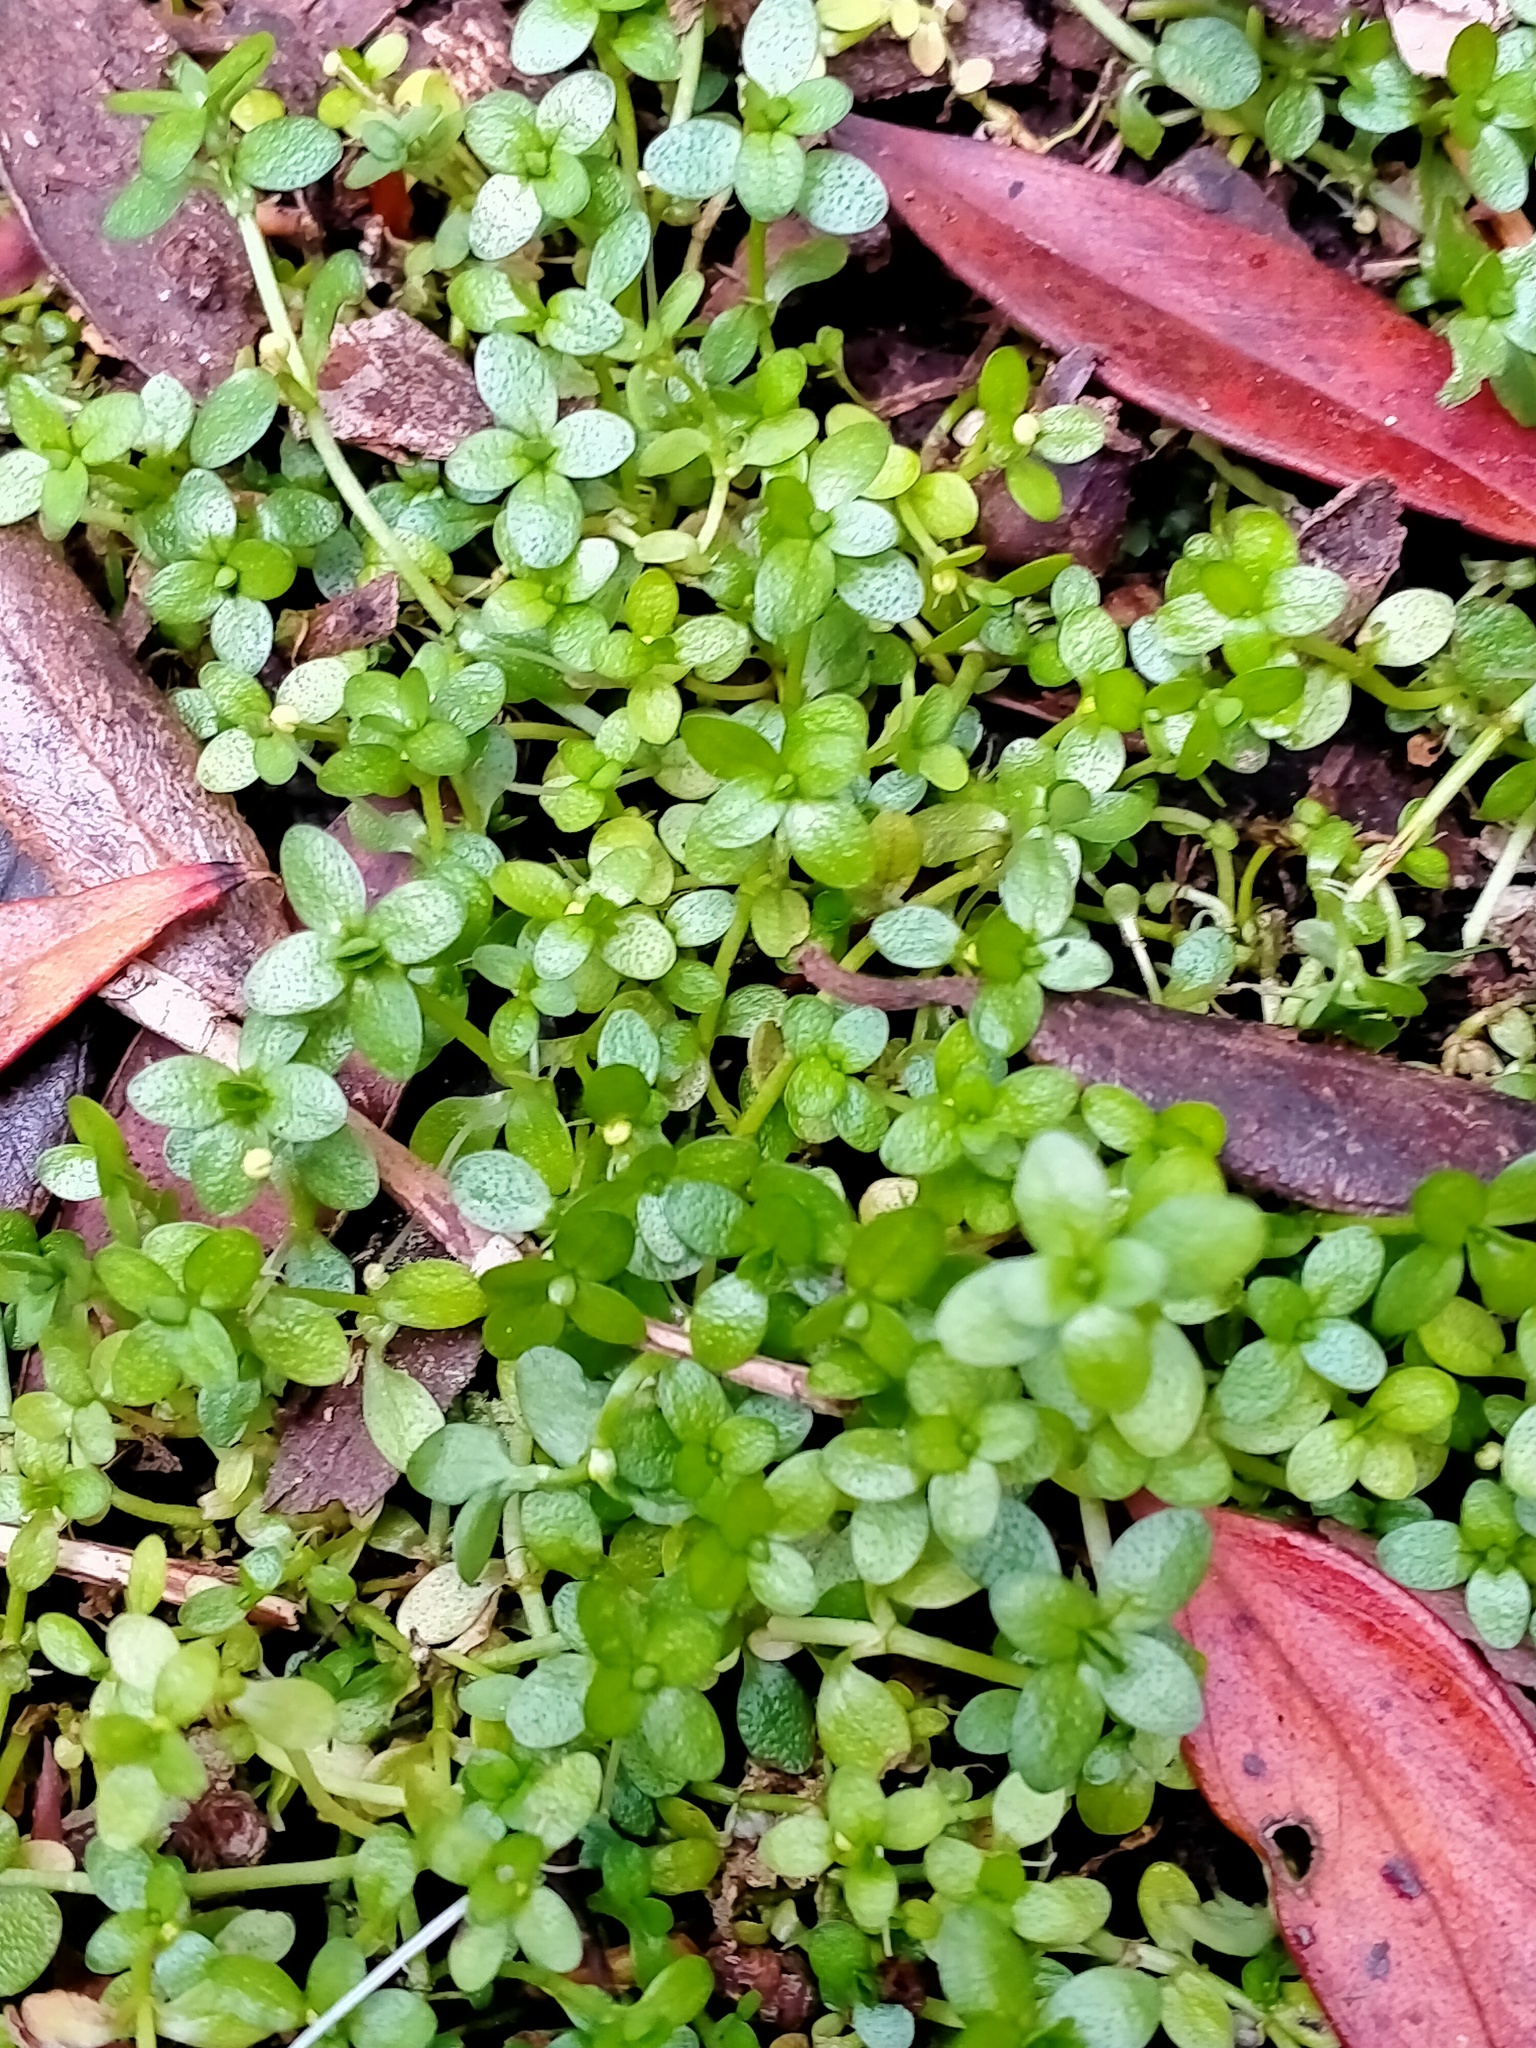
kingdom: Plantae
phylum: Tracheophyta
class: Magnoliopsida
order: Lamiales
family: Plantaginaceae
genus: Callitriche
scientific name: Callitriche aucklandica
